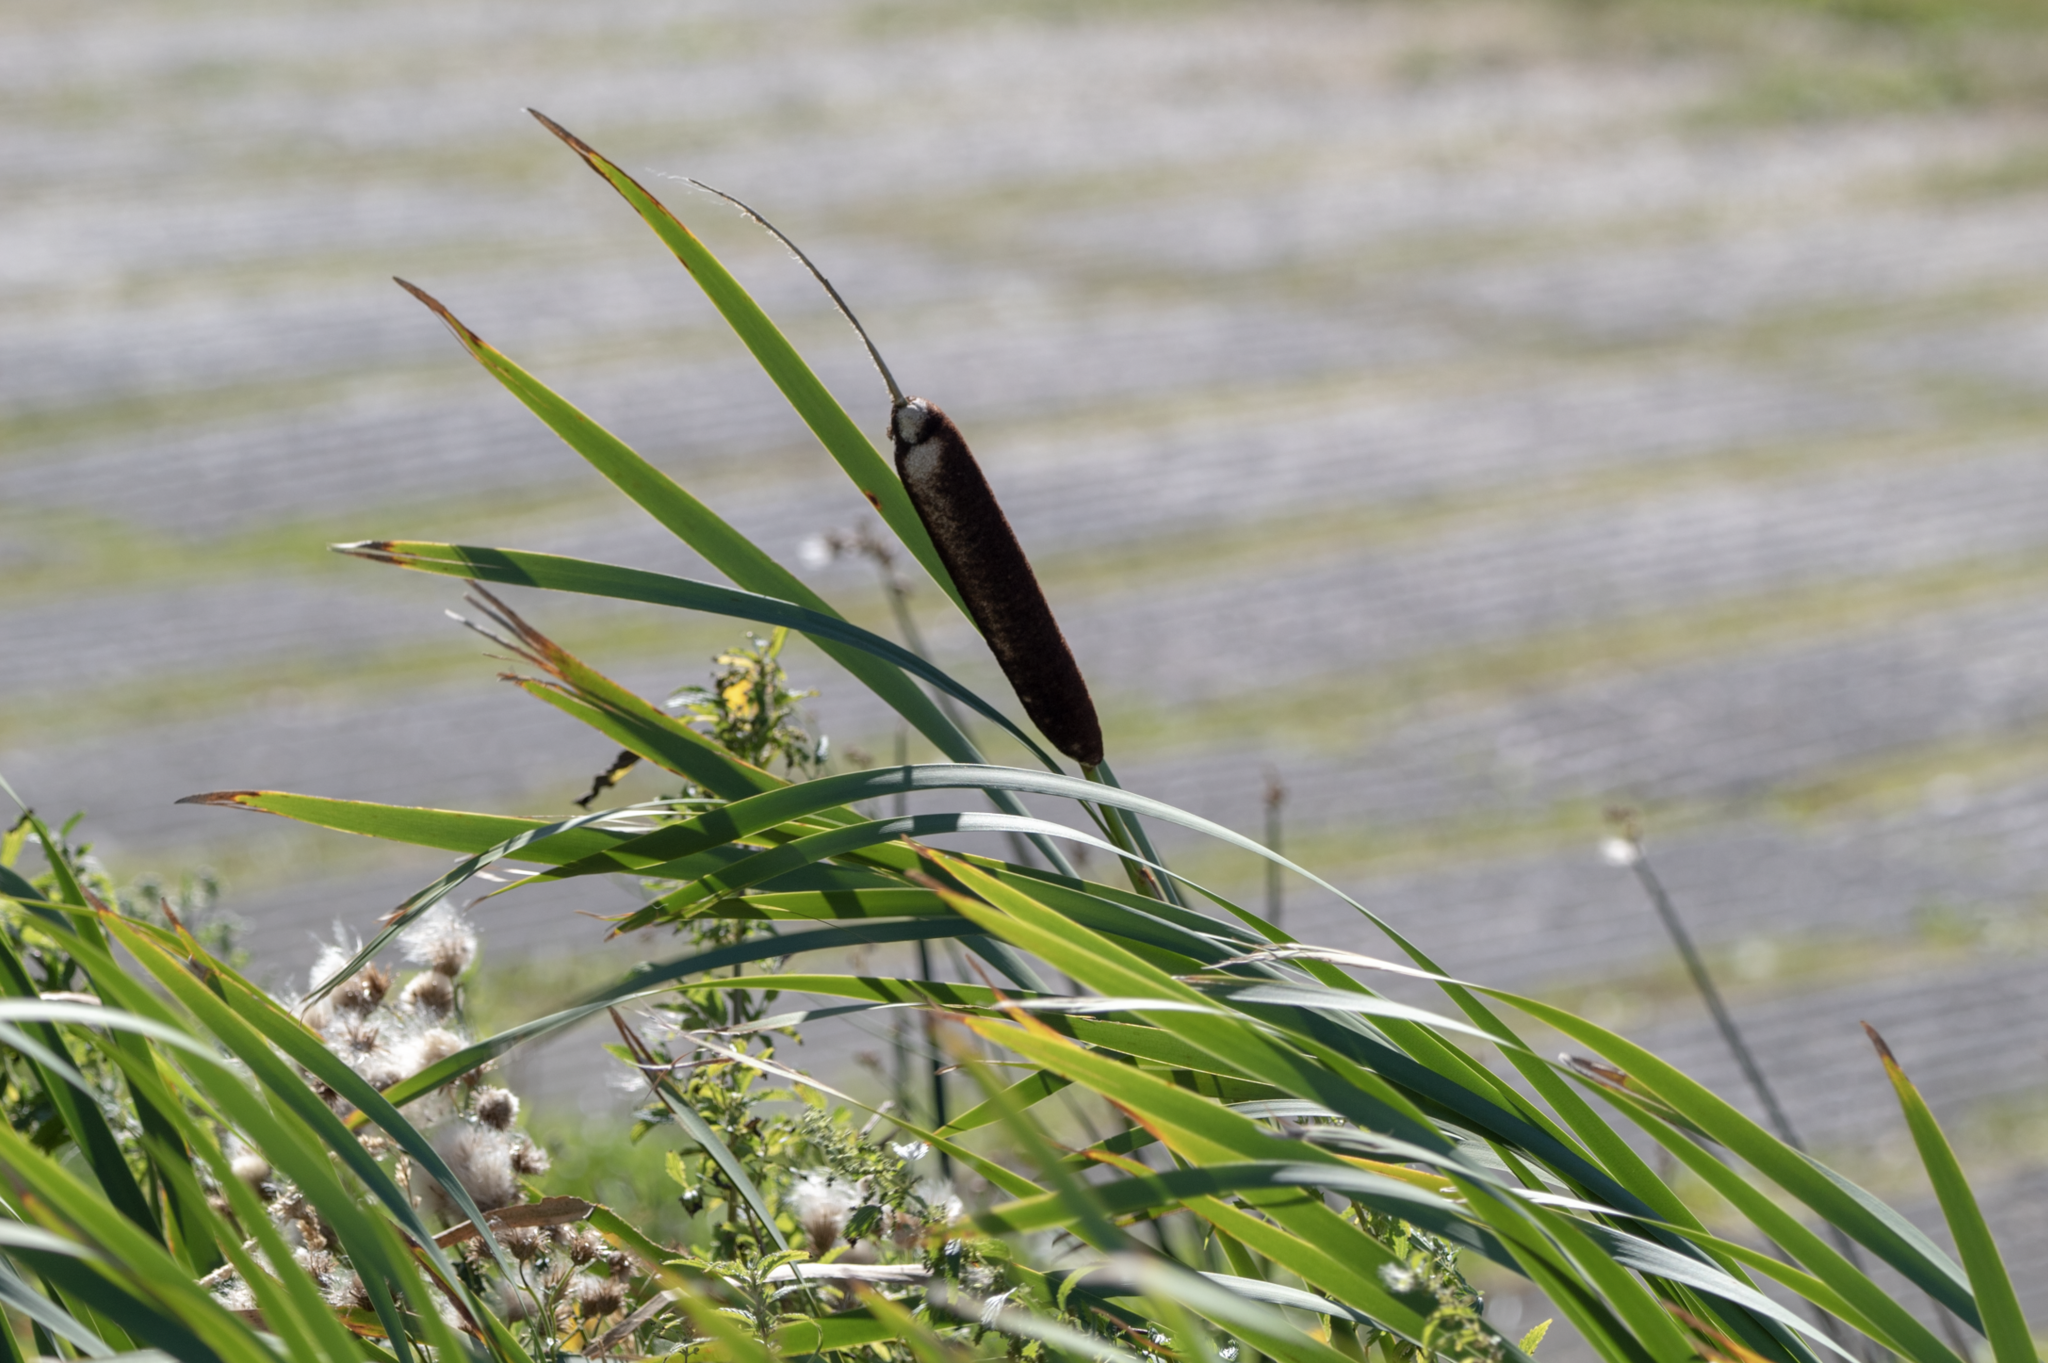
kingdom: Plantae
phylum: Tracheophyta
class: Liliopsida
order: Poales
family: Typhaceae
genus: Typha
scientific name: Typha latifolia
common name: Broadleaf cattail
